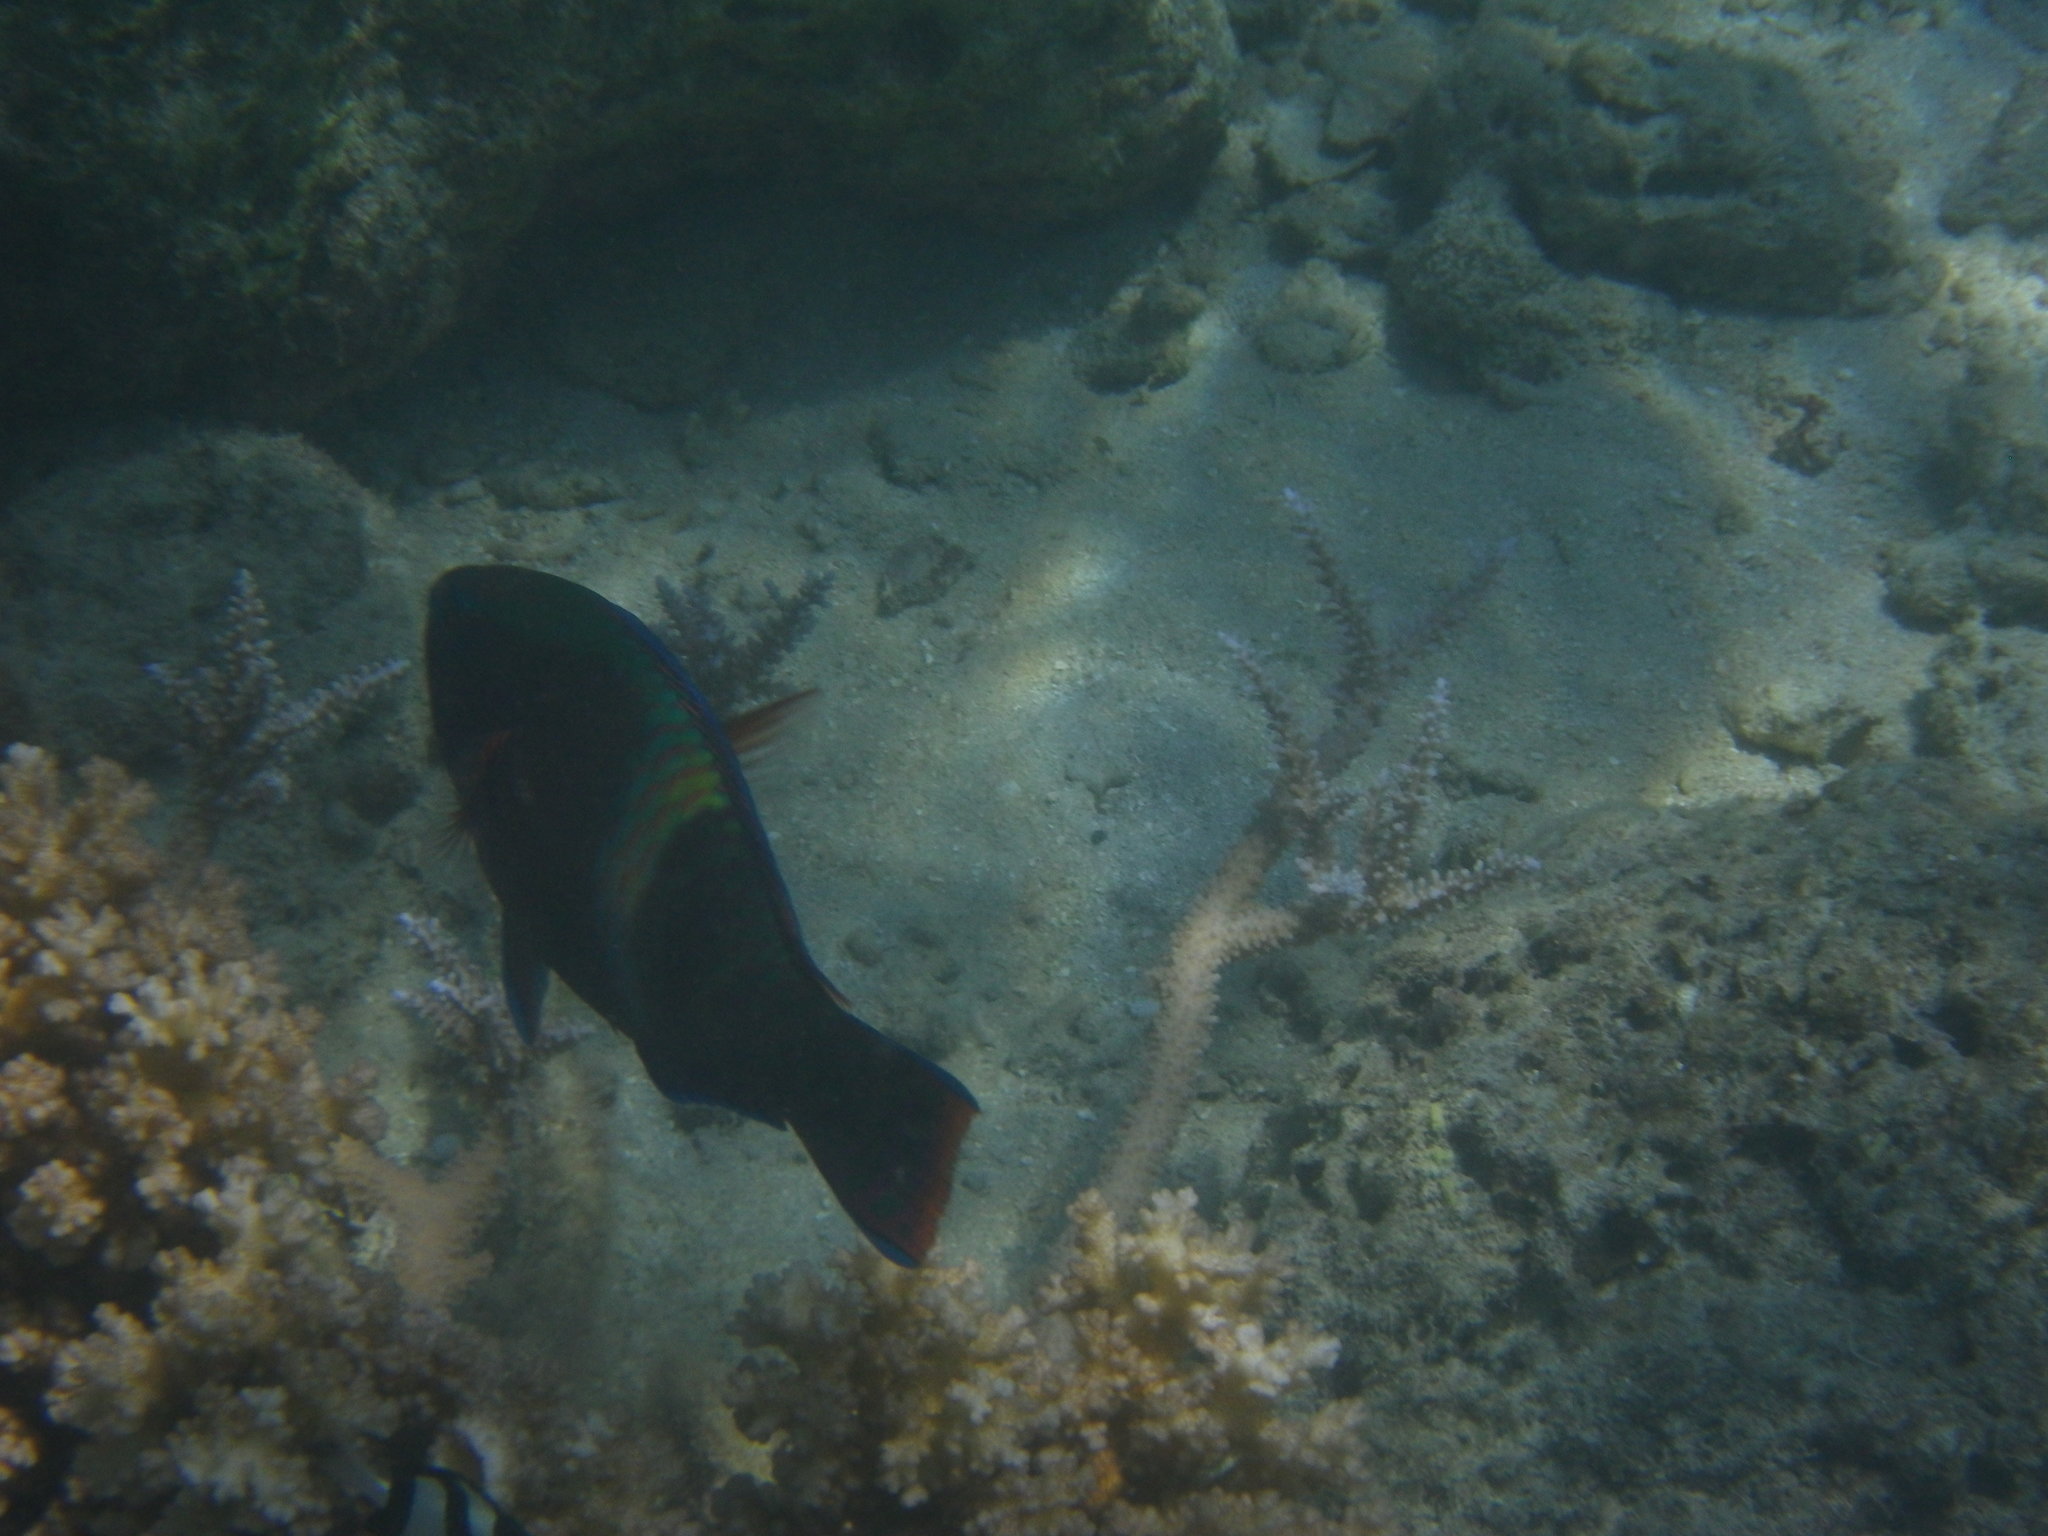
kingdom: Animalia
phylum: Chordata
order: Perciformes
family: Scaridae
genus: Scarus
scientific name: Scarus schlegeli
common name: Schlegel's parrotfish
